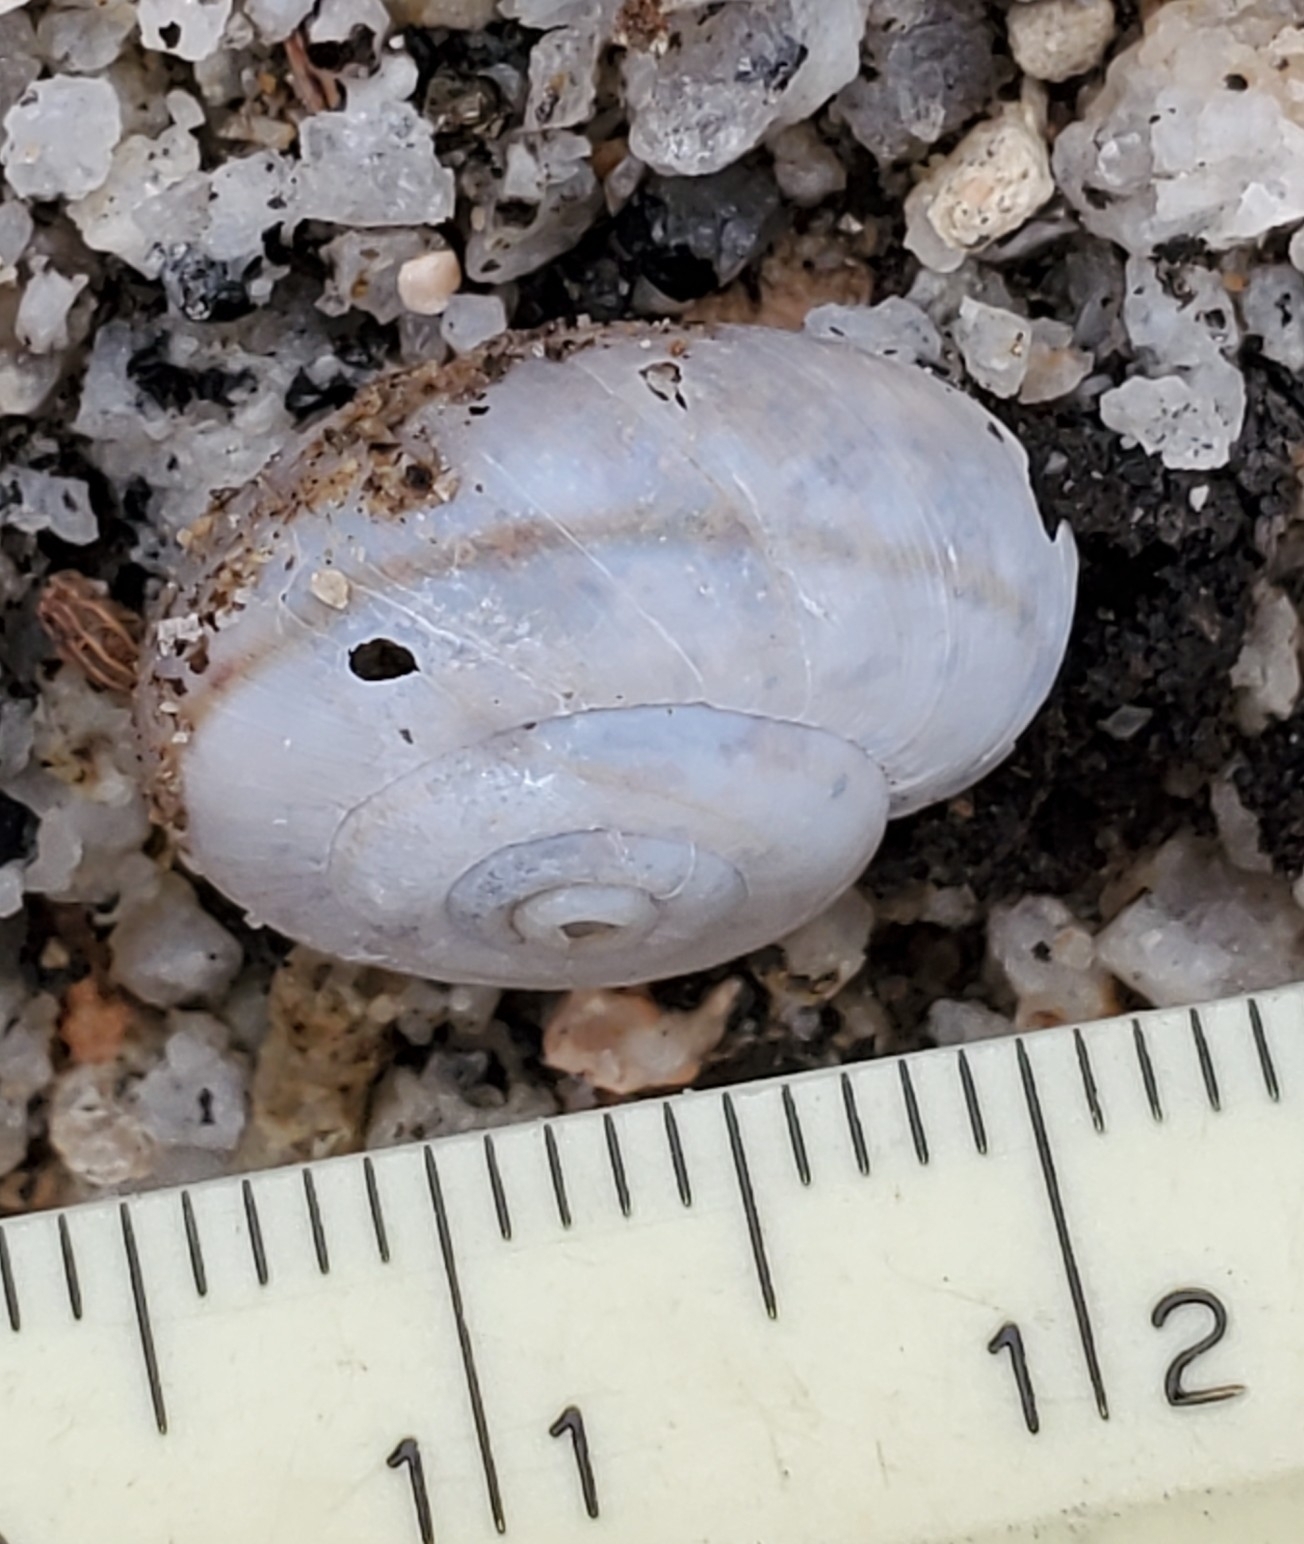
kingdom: Animalia
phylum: Mollusca
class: Gastropoda
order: Stylommatophora
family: Xanthonychidae
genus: Sonorelix
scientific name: Sonorelix borregoensis
